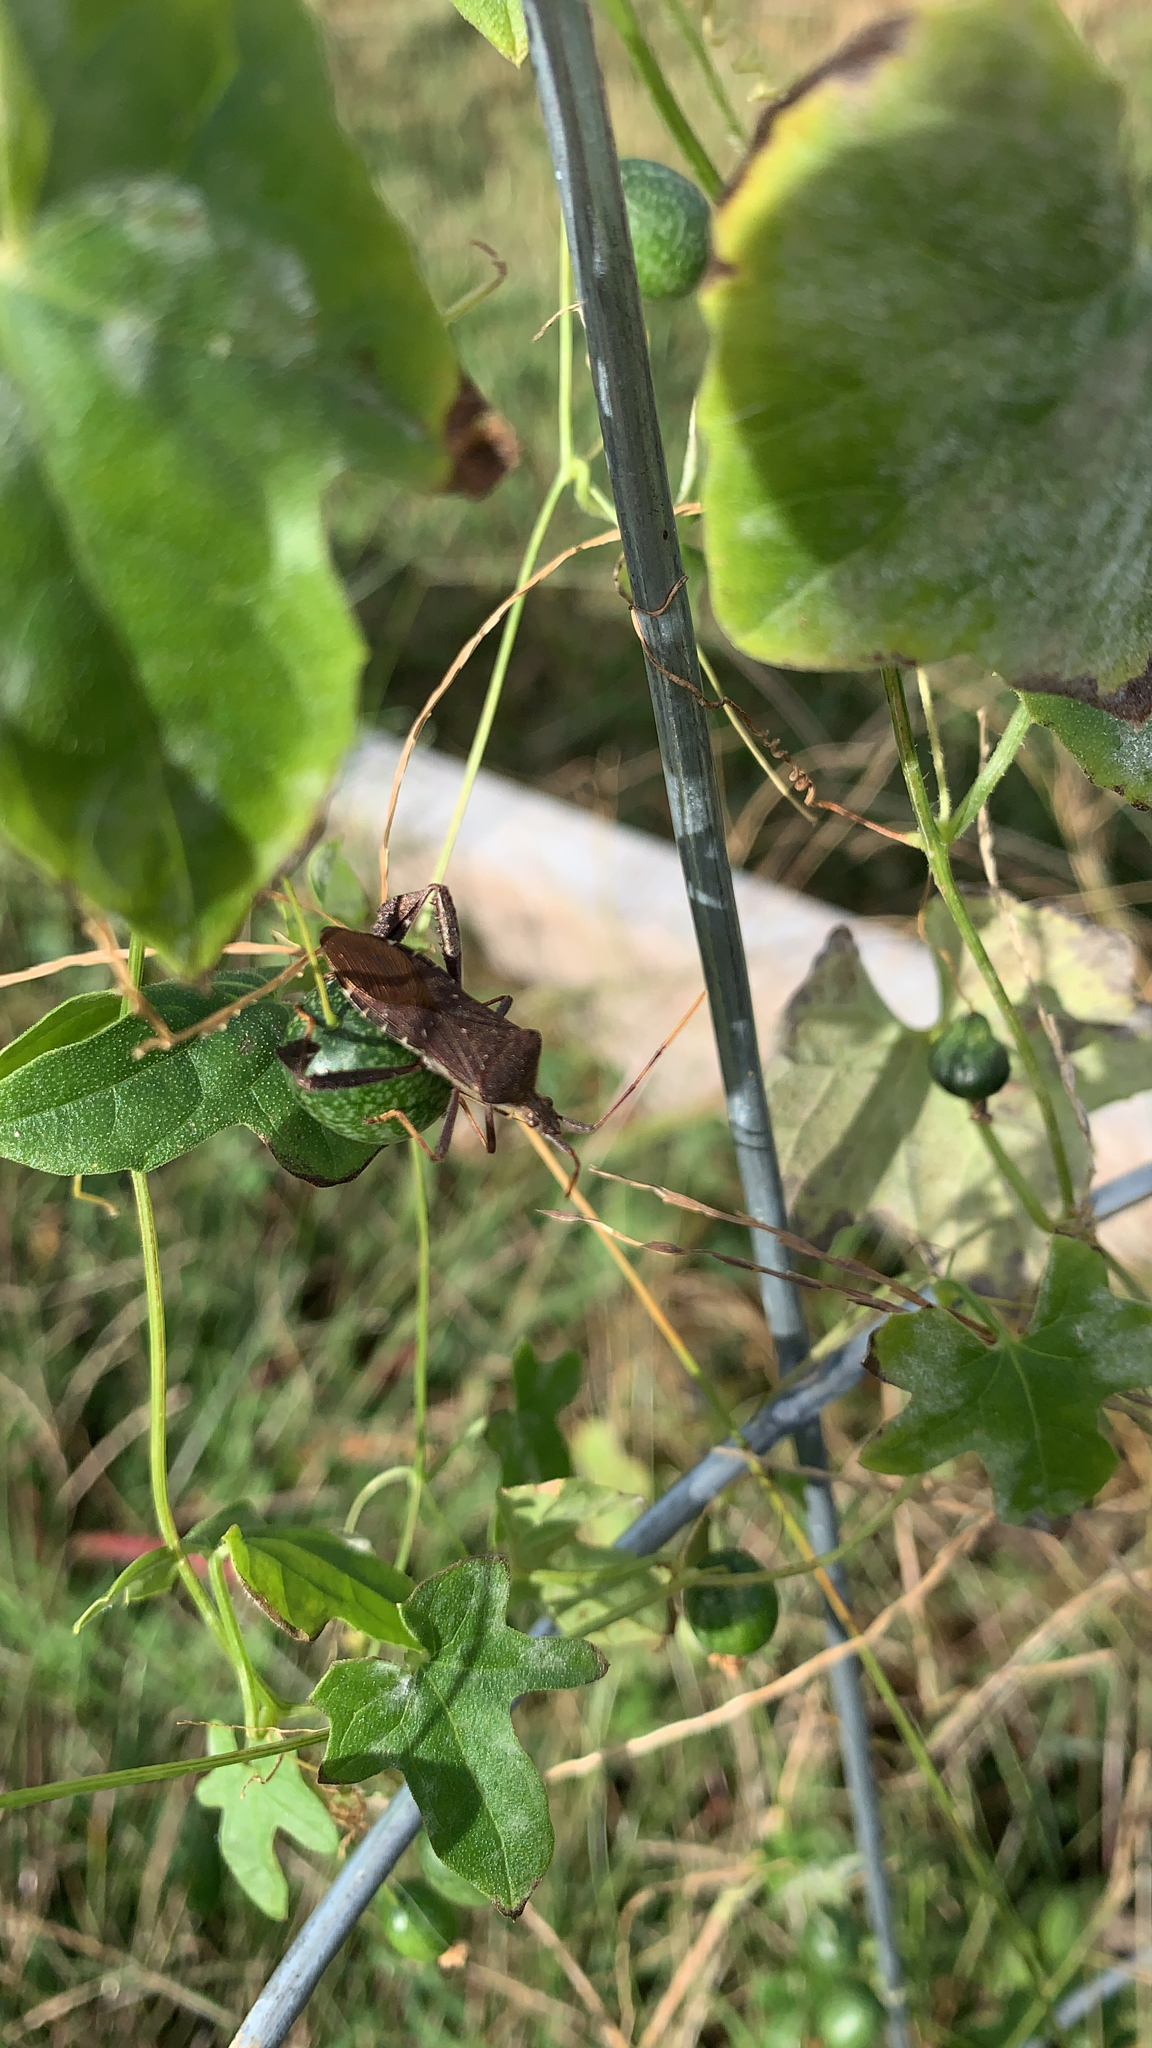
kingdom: Animalia
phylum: Arthropoda
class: Insecta
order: Hemiptera
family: Coreidae
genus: Leptoglossus
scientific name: Leptoglossus oppositus
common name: Northern leaf-footed bug
